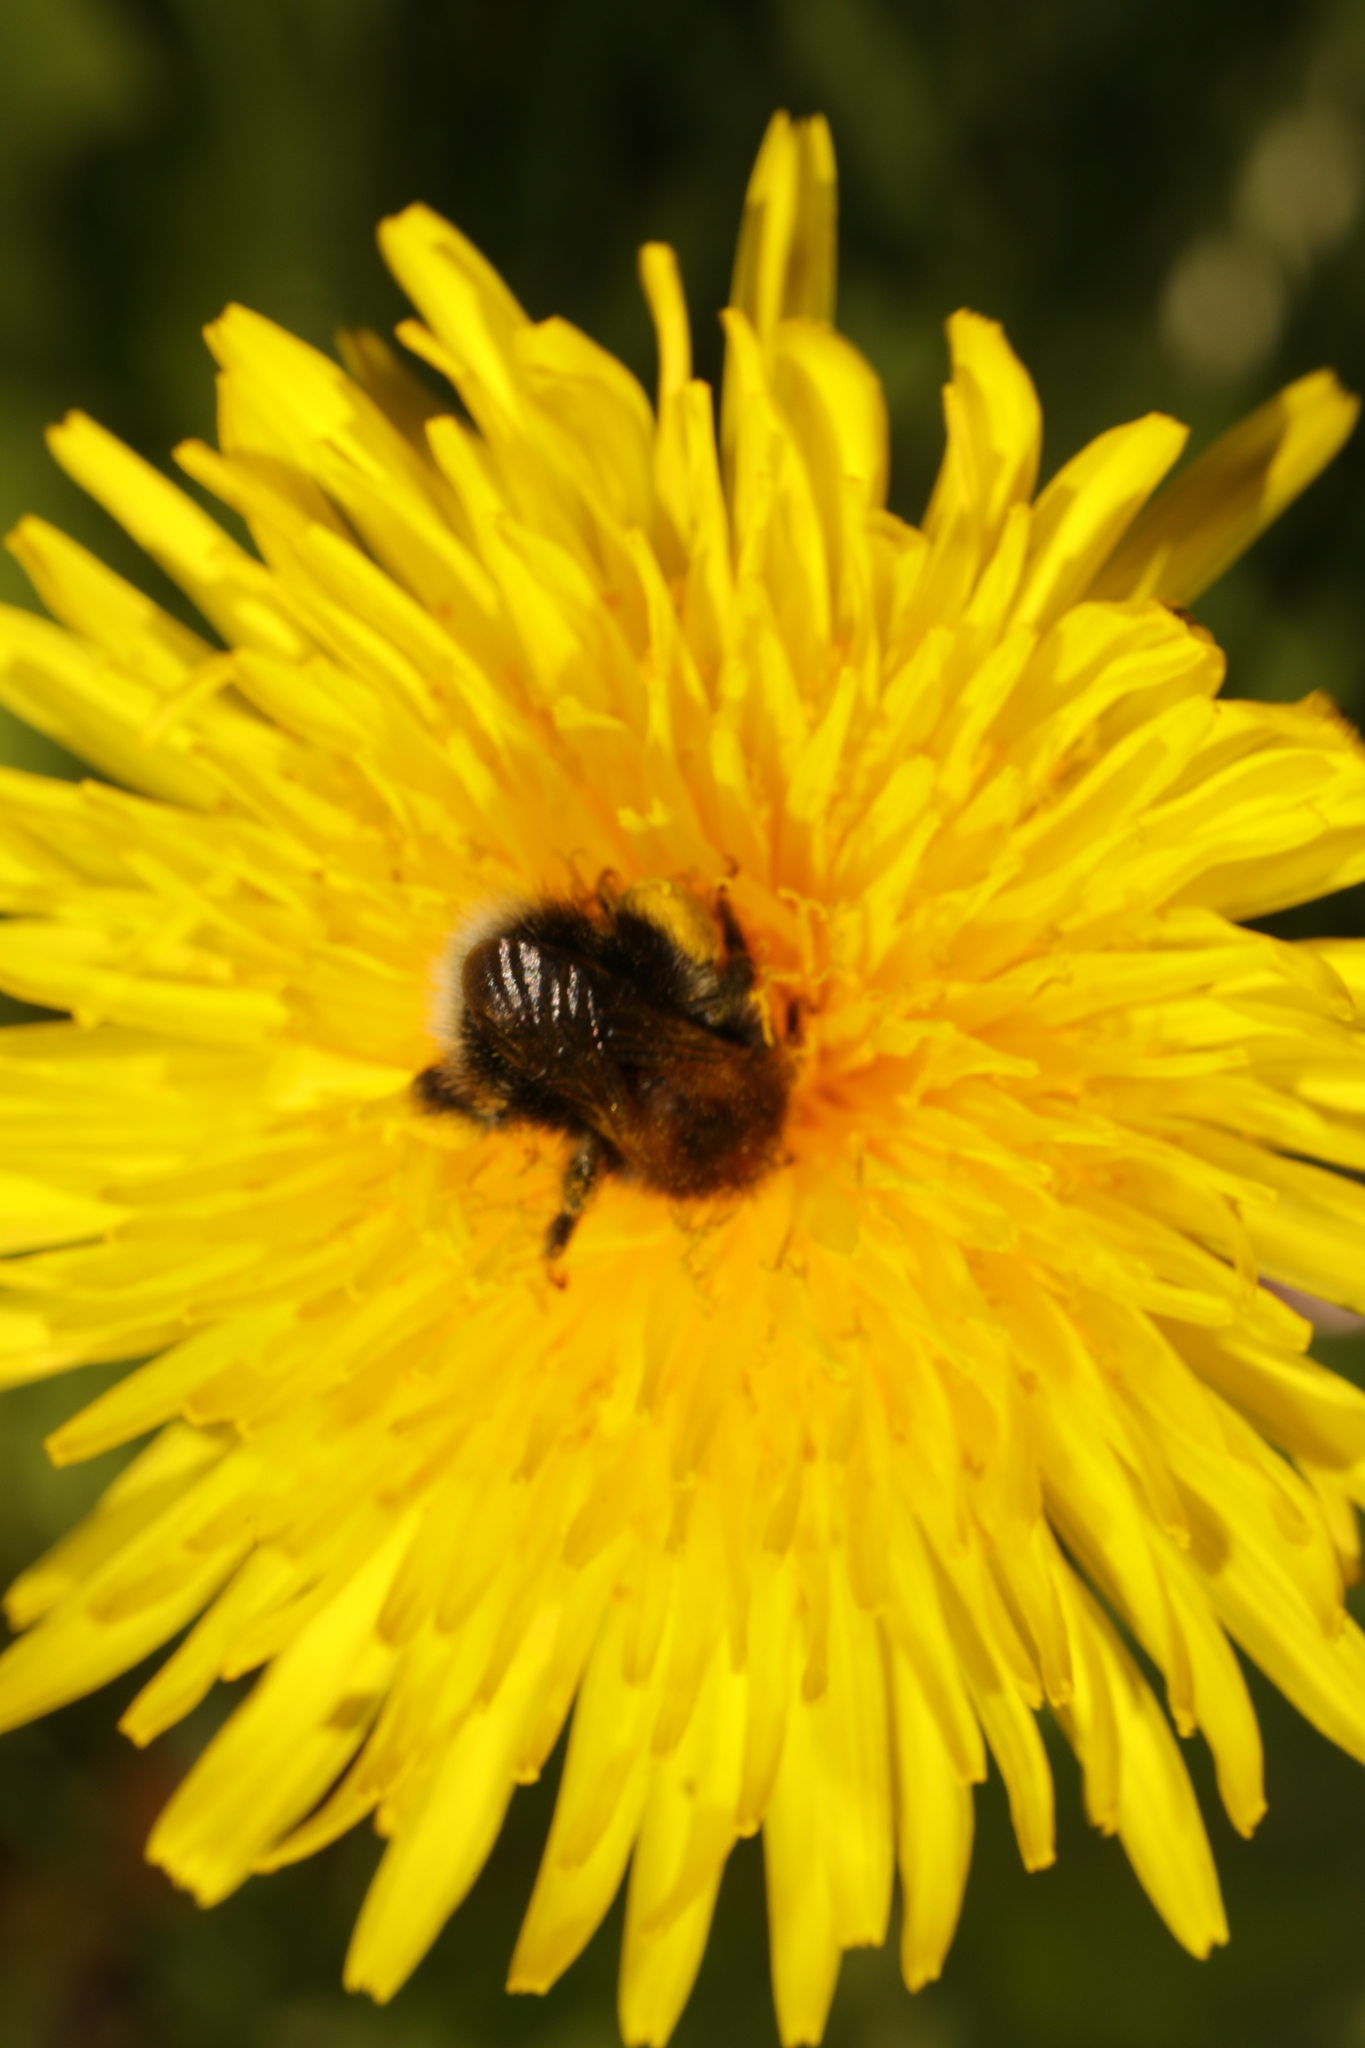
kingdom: Animalia
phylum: Arthropoda
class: Insecta
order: Hymenoptera
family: Apidae
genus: Bombus
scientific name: Bombus hypnorum
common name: New garden bumblebee
